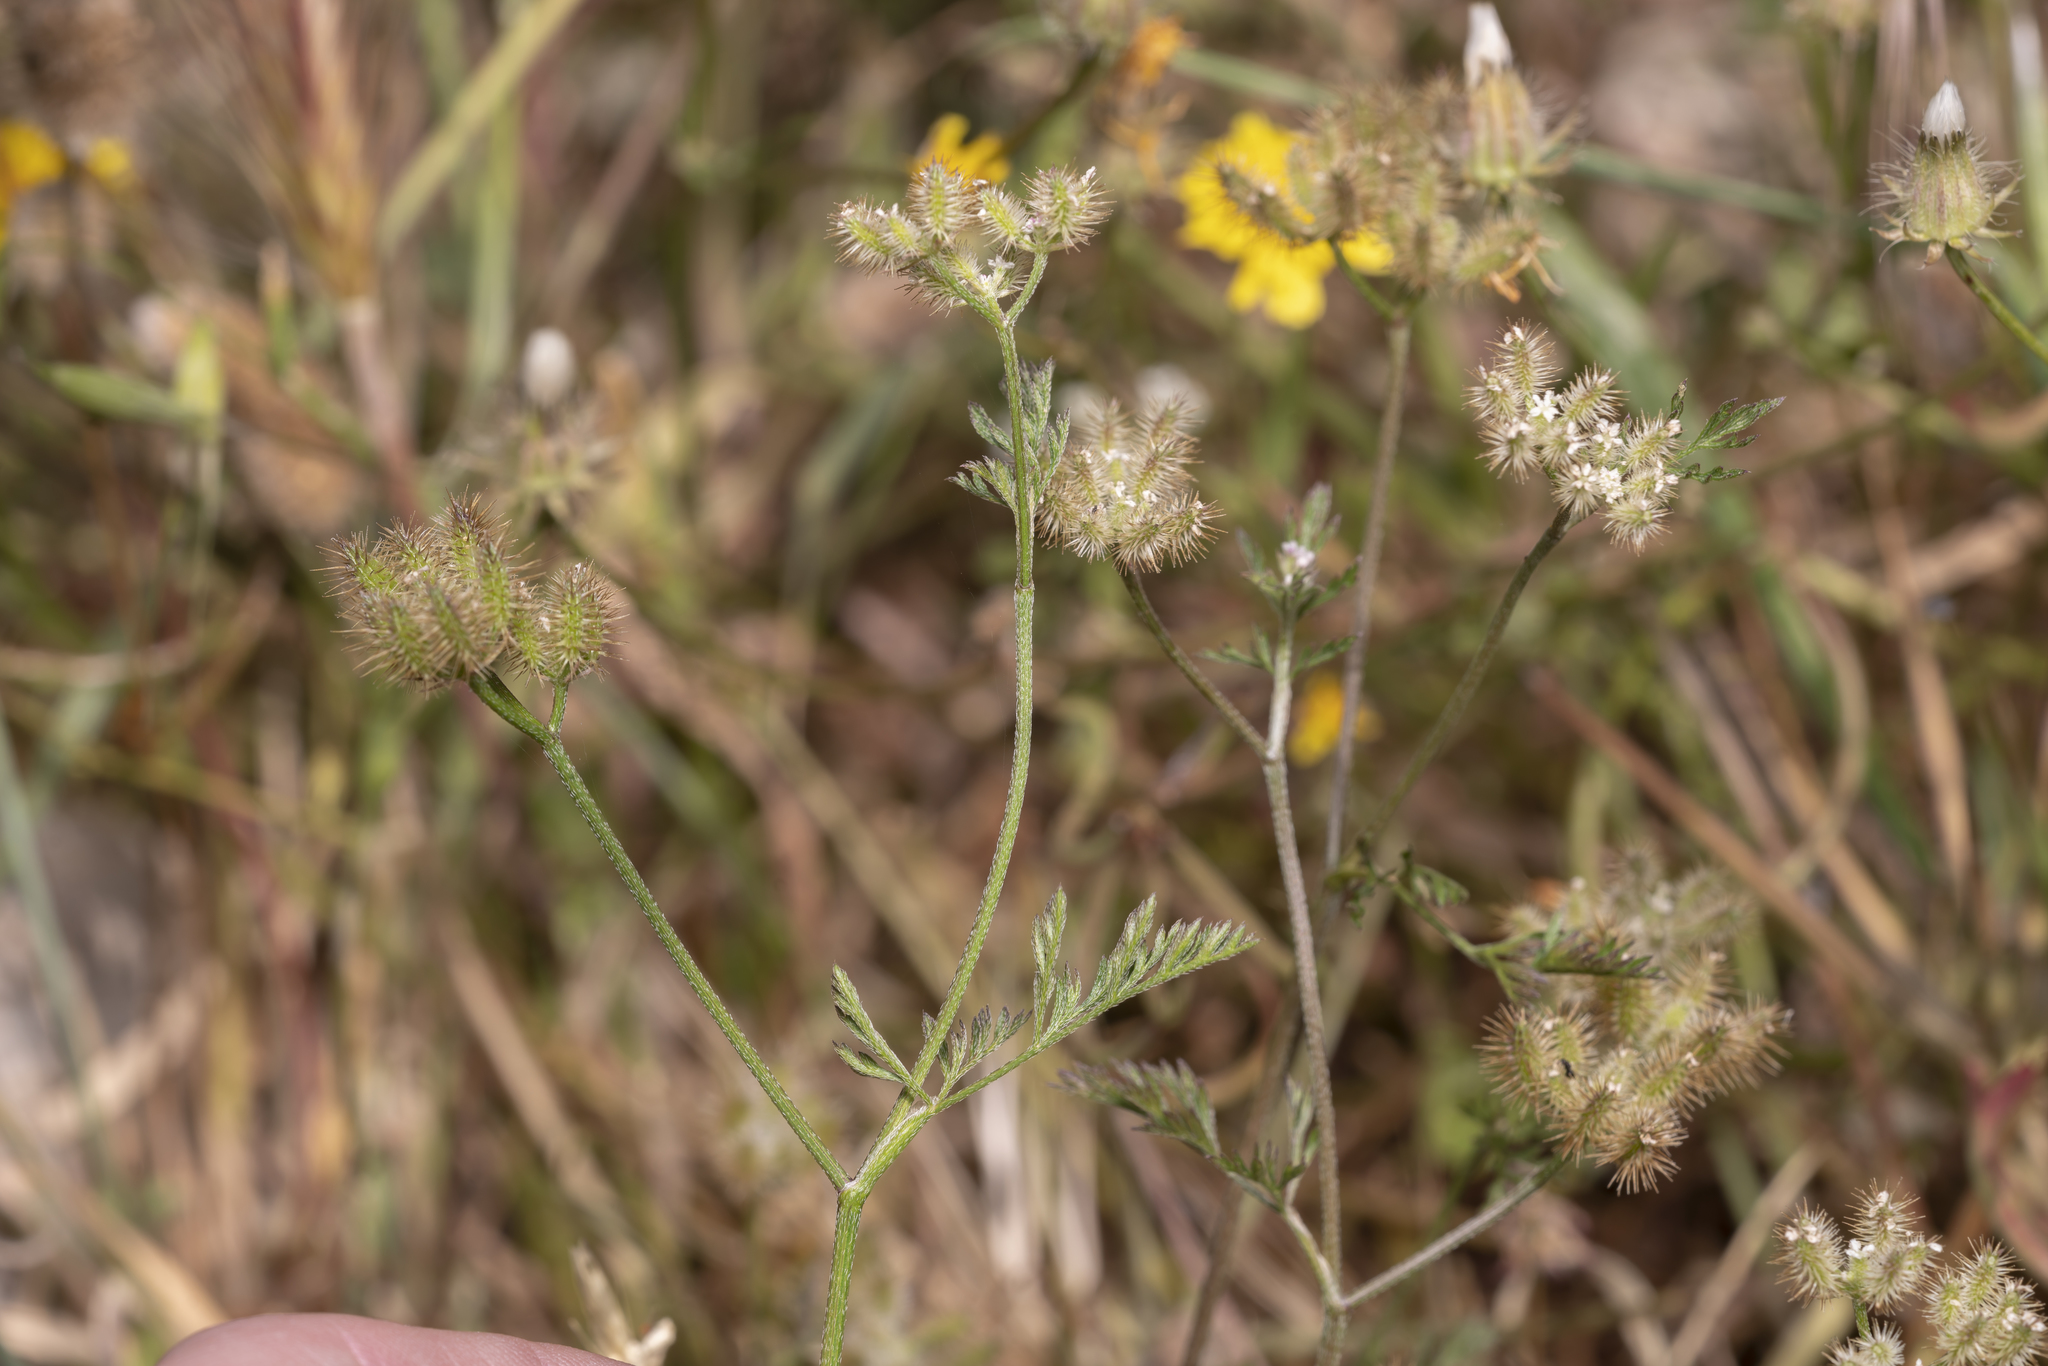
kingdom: Plantae
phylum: Tracheophyta
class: Magnoliopsida
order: Apiales
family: Apiaceae
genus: Torilis
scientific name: Torilis leptophylla
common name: Bristlefruit hedgeparsley
